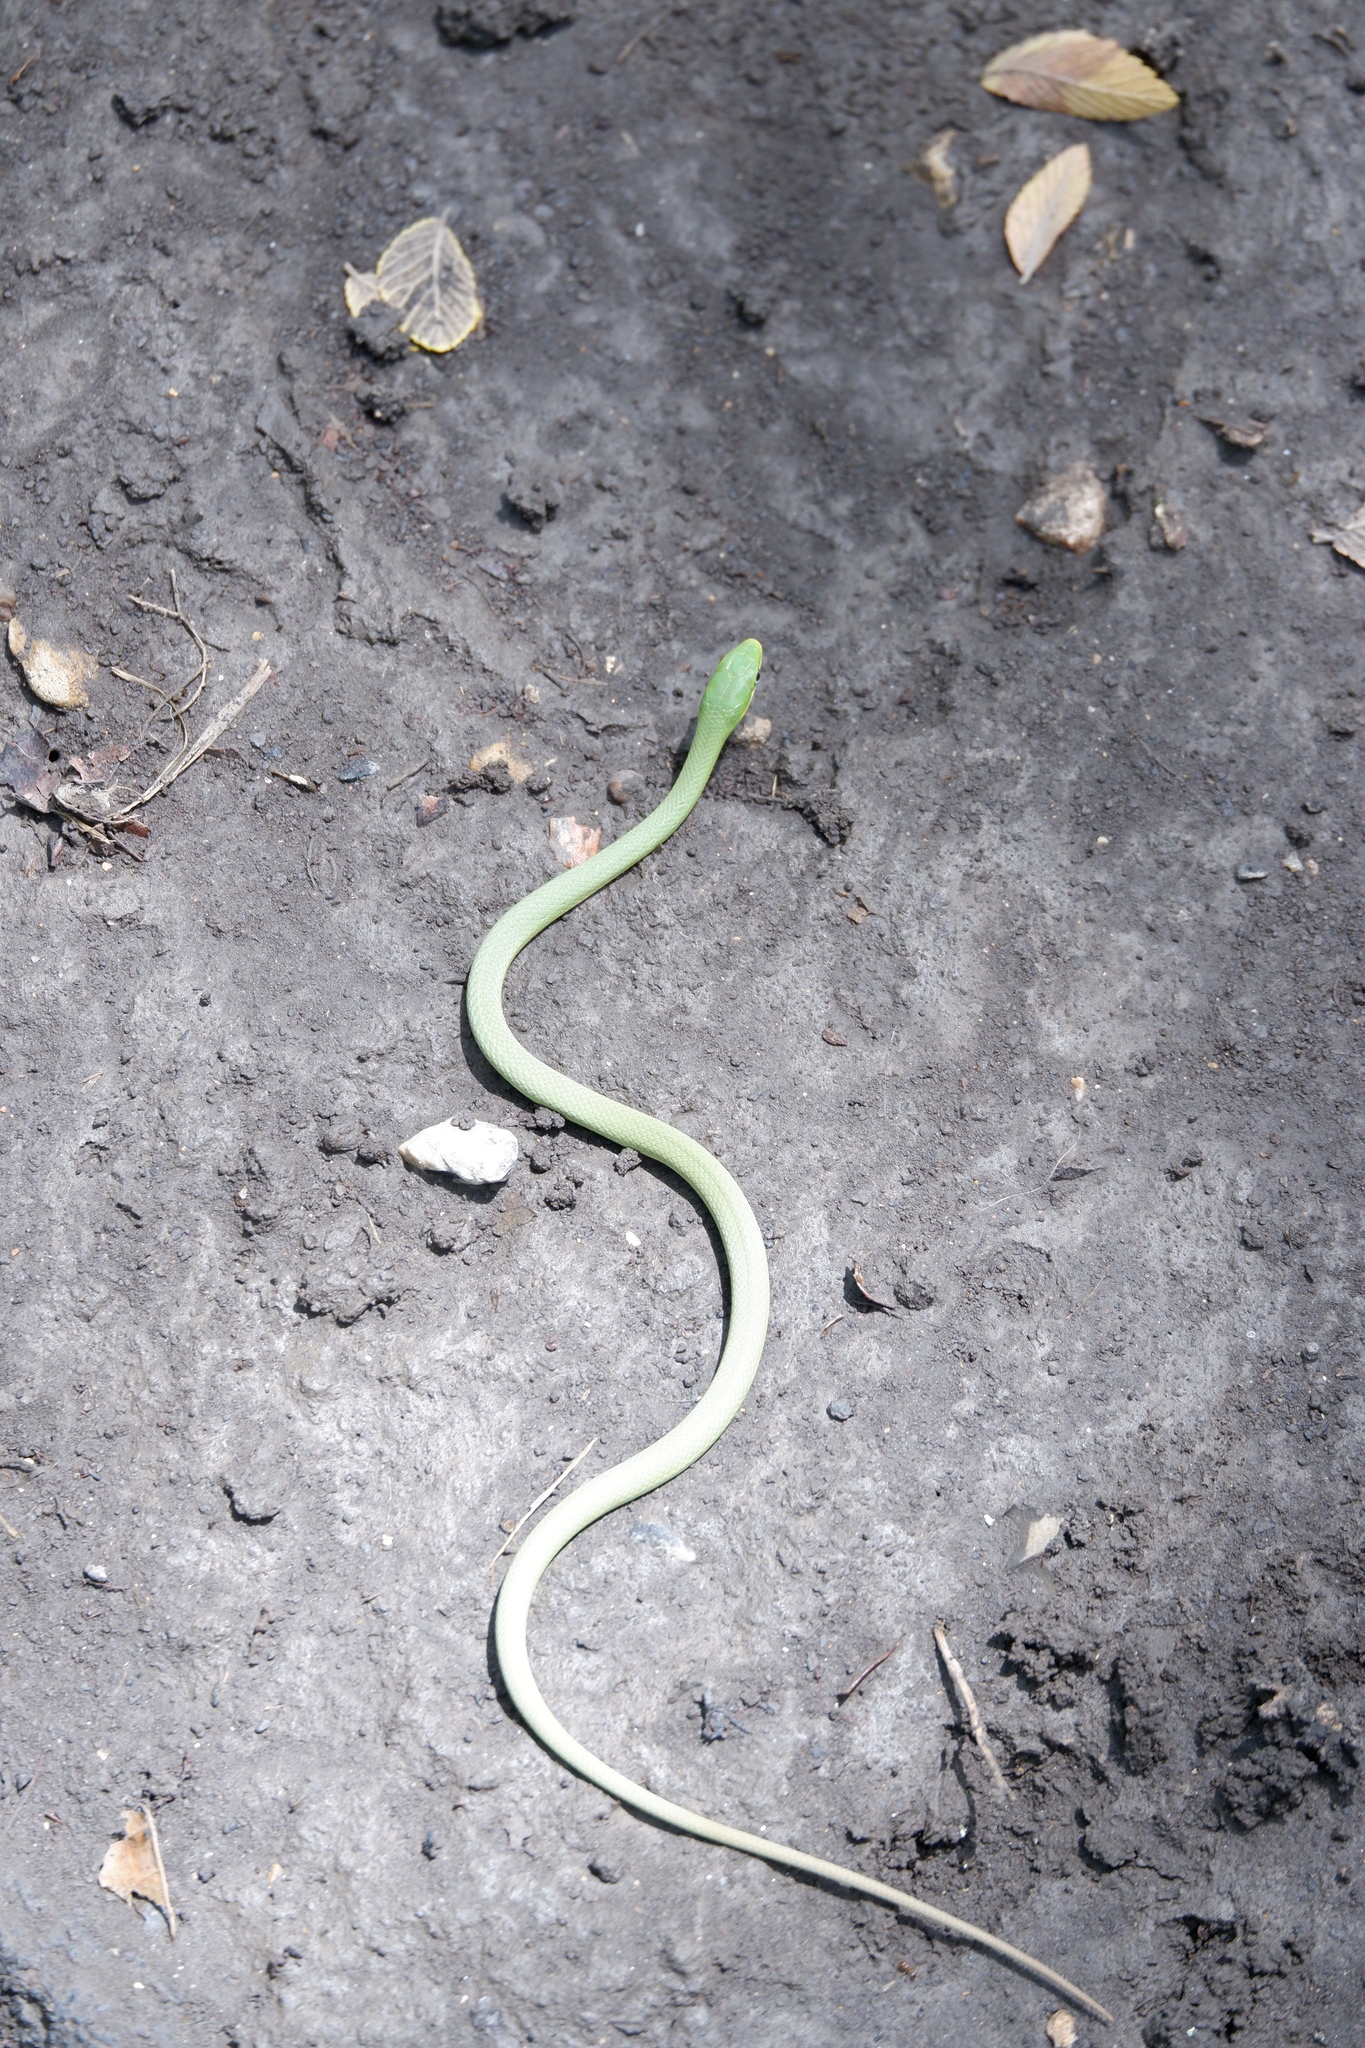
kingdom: Animalia
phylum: Chordata
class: Squamata
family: Colubridae
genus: Opheodrys
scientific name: Opheodrys aestivus
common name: Rough greensnake
